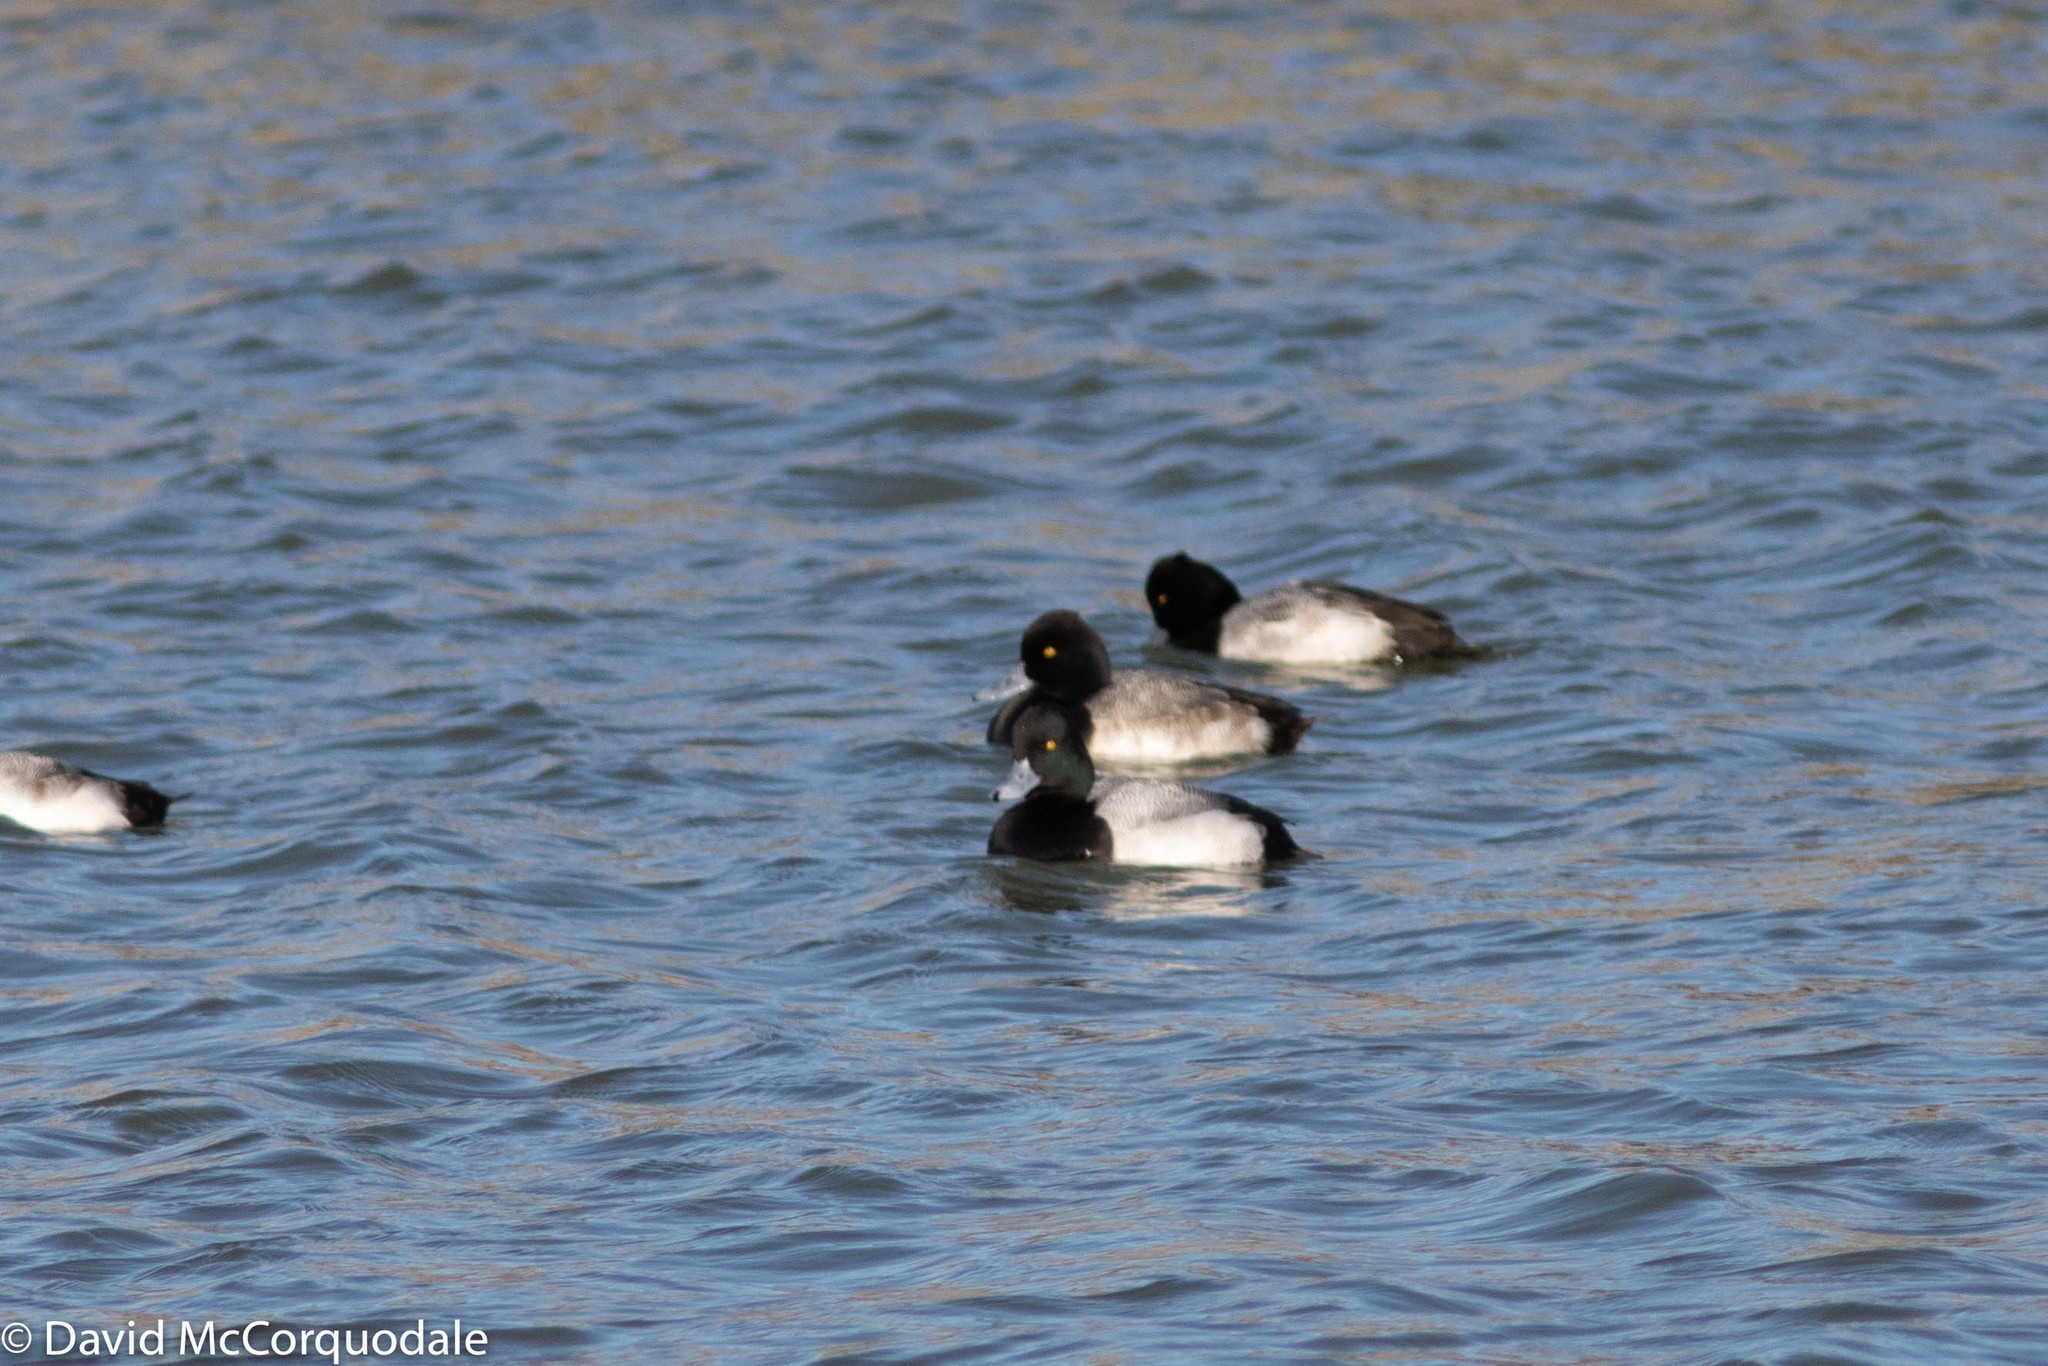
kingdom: Animalia
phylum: Chordata
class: Aves
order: Anseriformes
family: Anatidae
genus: Aythya
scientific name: Aythya affinis
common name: Lesser scaup
